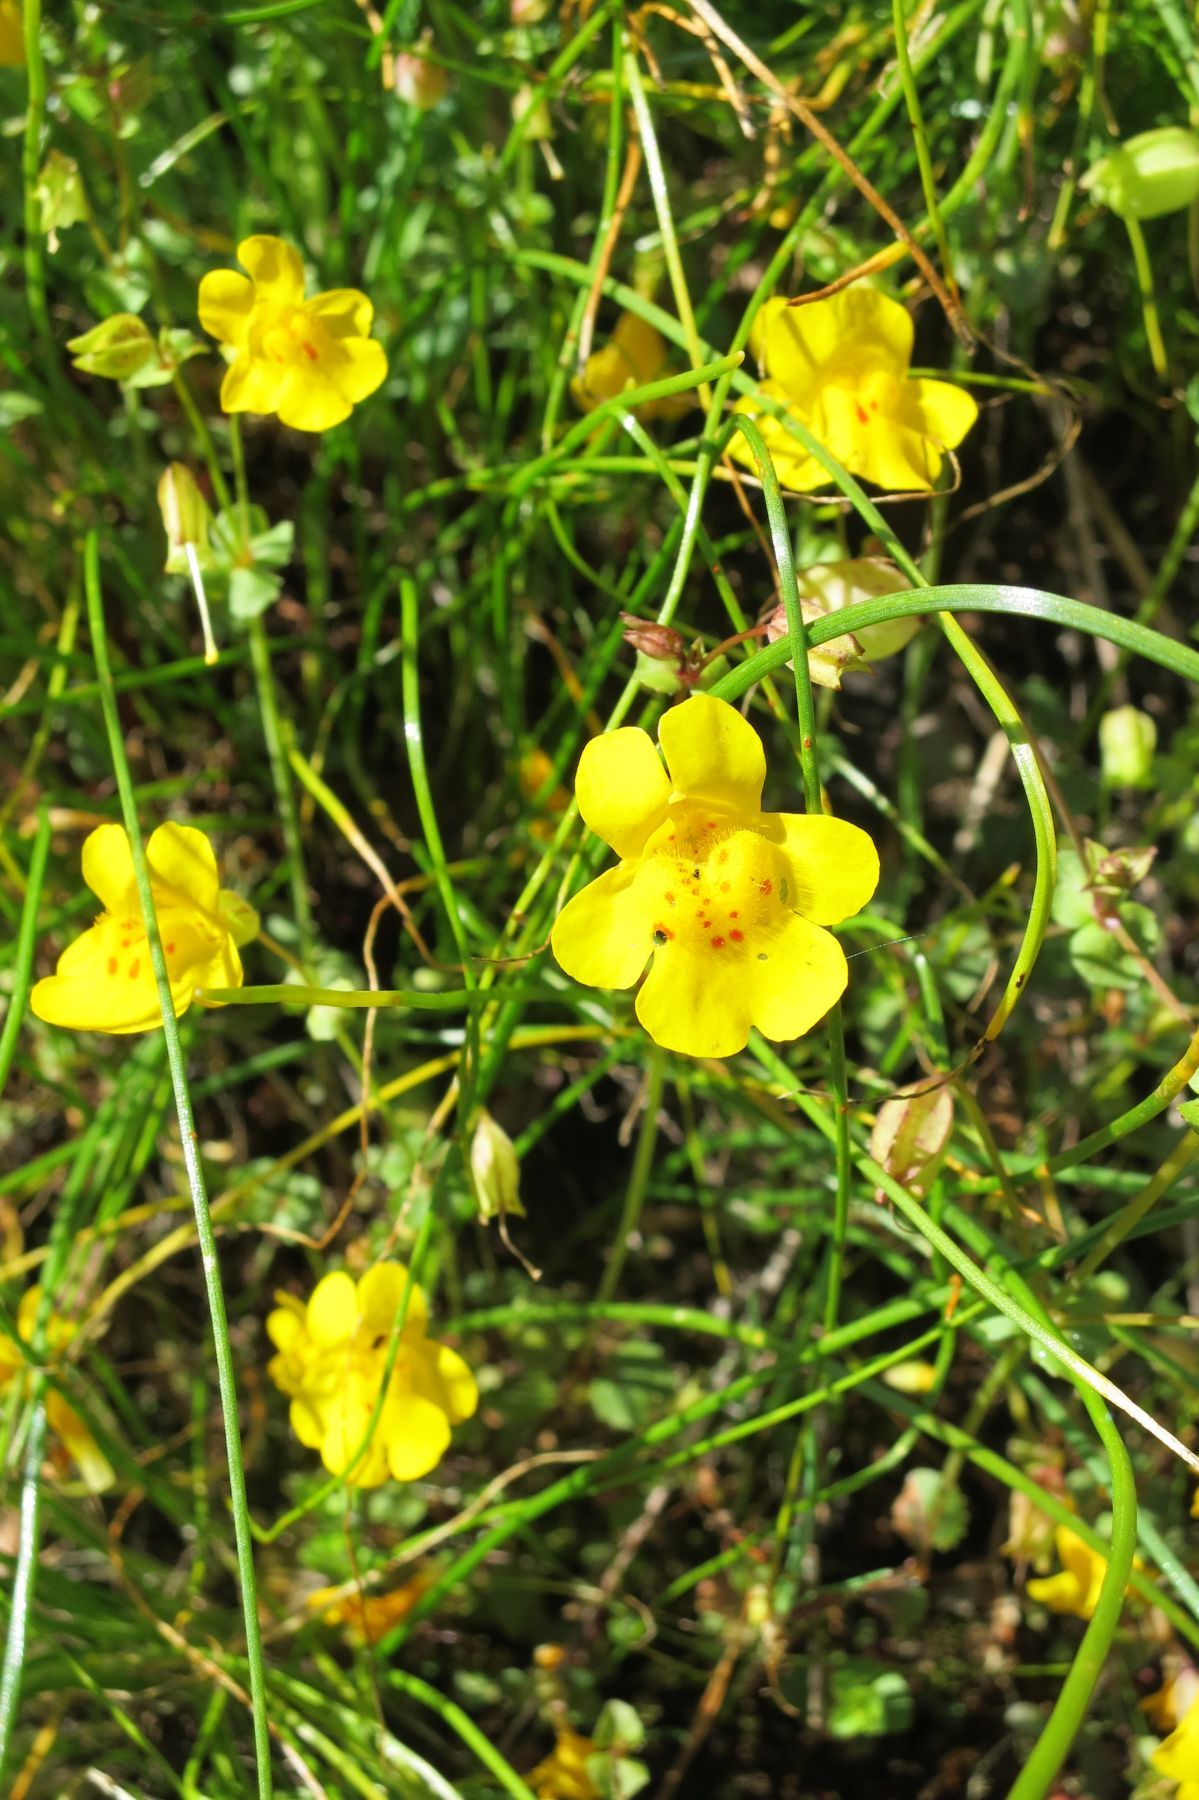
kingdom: Plantae
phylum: Tracheophyta
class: Magnoliopsida
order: Lamiales
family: Phrymaceae
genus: Erythranthe
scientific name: Erythranthe microphylla
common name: Bentham's monkeyflower
